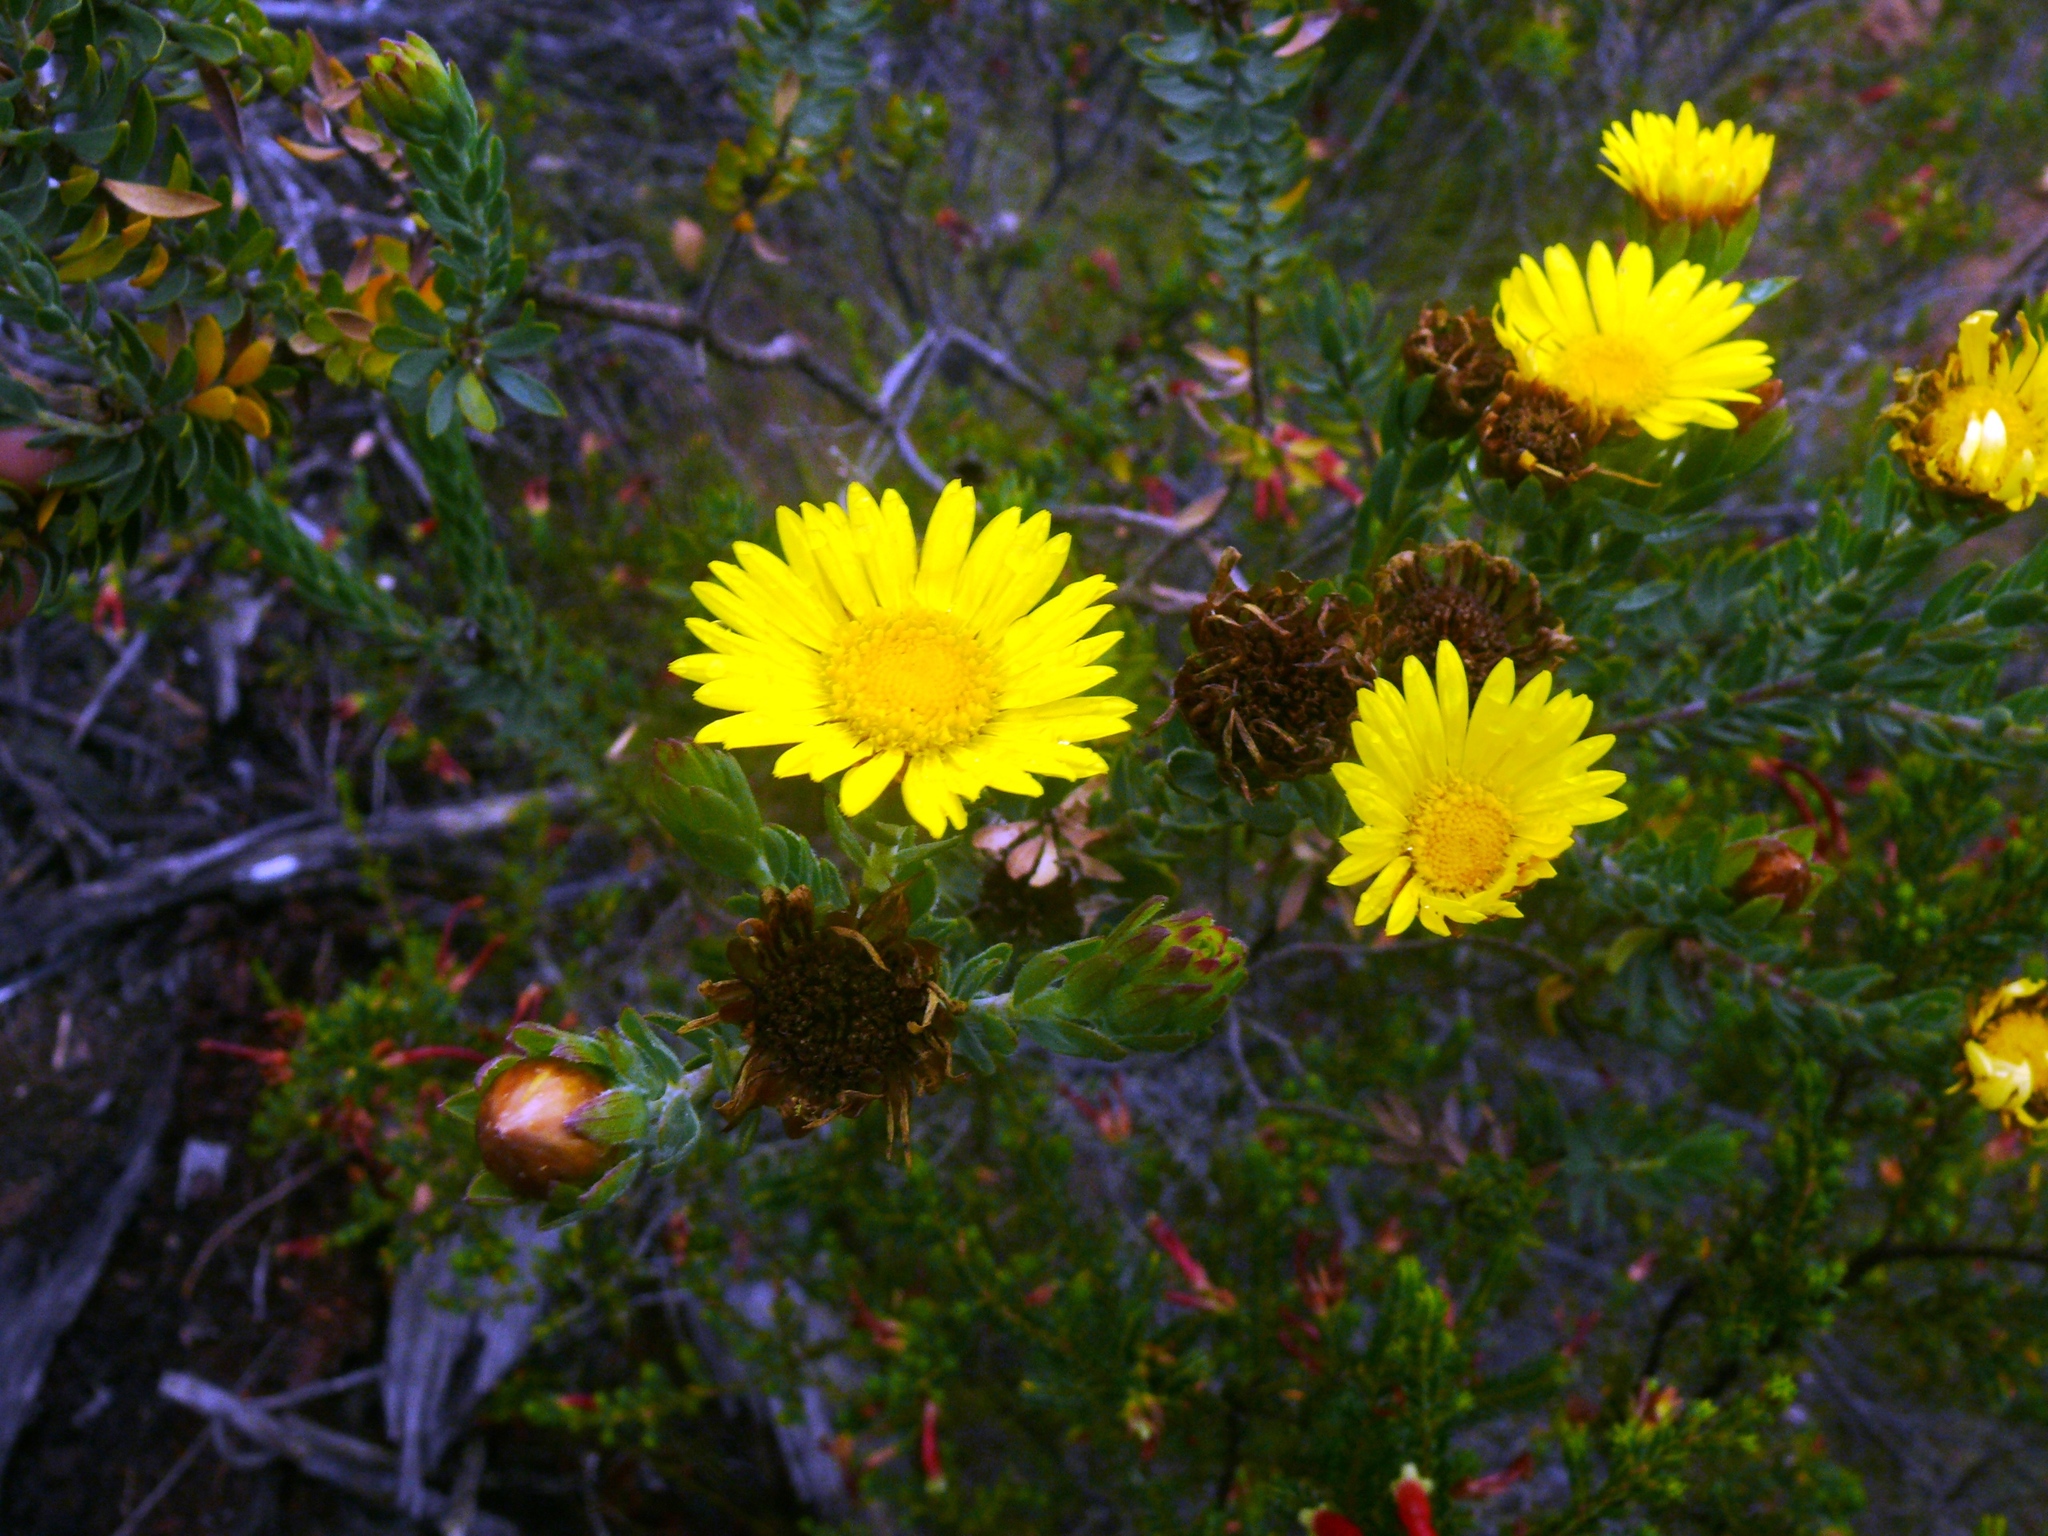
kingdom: Plantae
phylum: Tracheophyta
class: Magnoliopsida
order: Asterales
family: Asteraceae
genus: Oedera
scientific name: Oedera calycina
